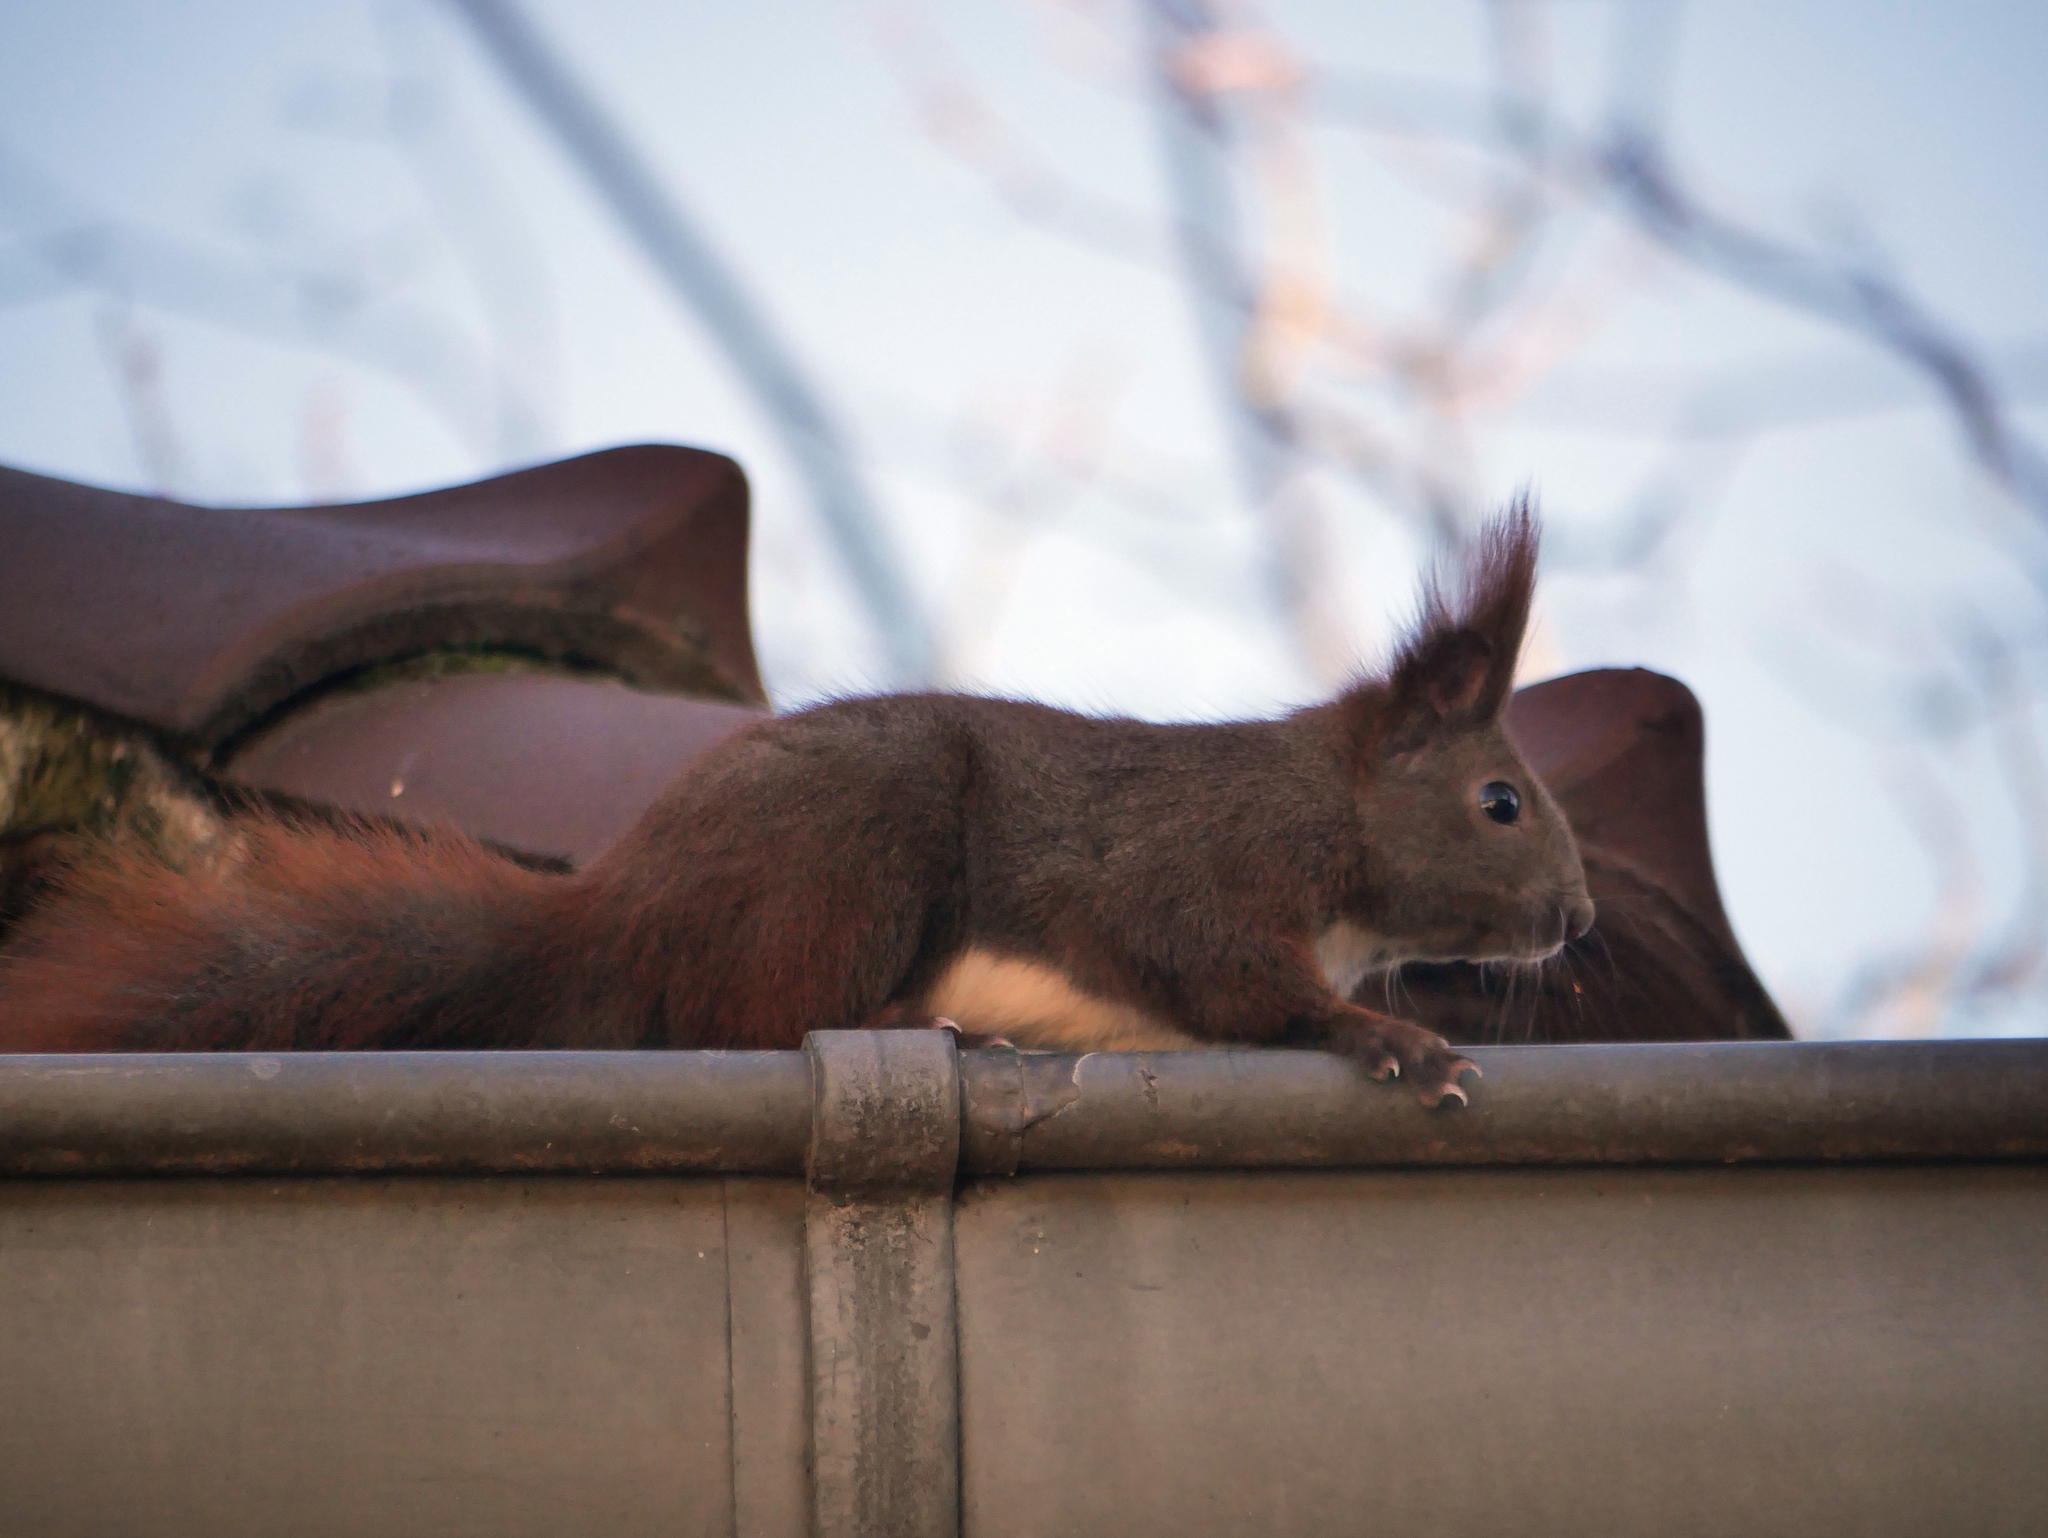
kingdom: Animalia
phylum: Chordata
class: Mammalia
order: Rodentia
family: Sciuridae
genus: Sciurus
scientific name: Sciurus vulgaris
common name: Eurasian red squirrel
